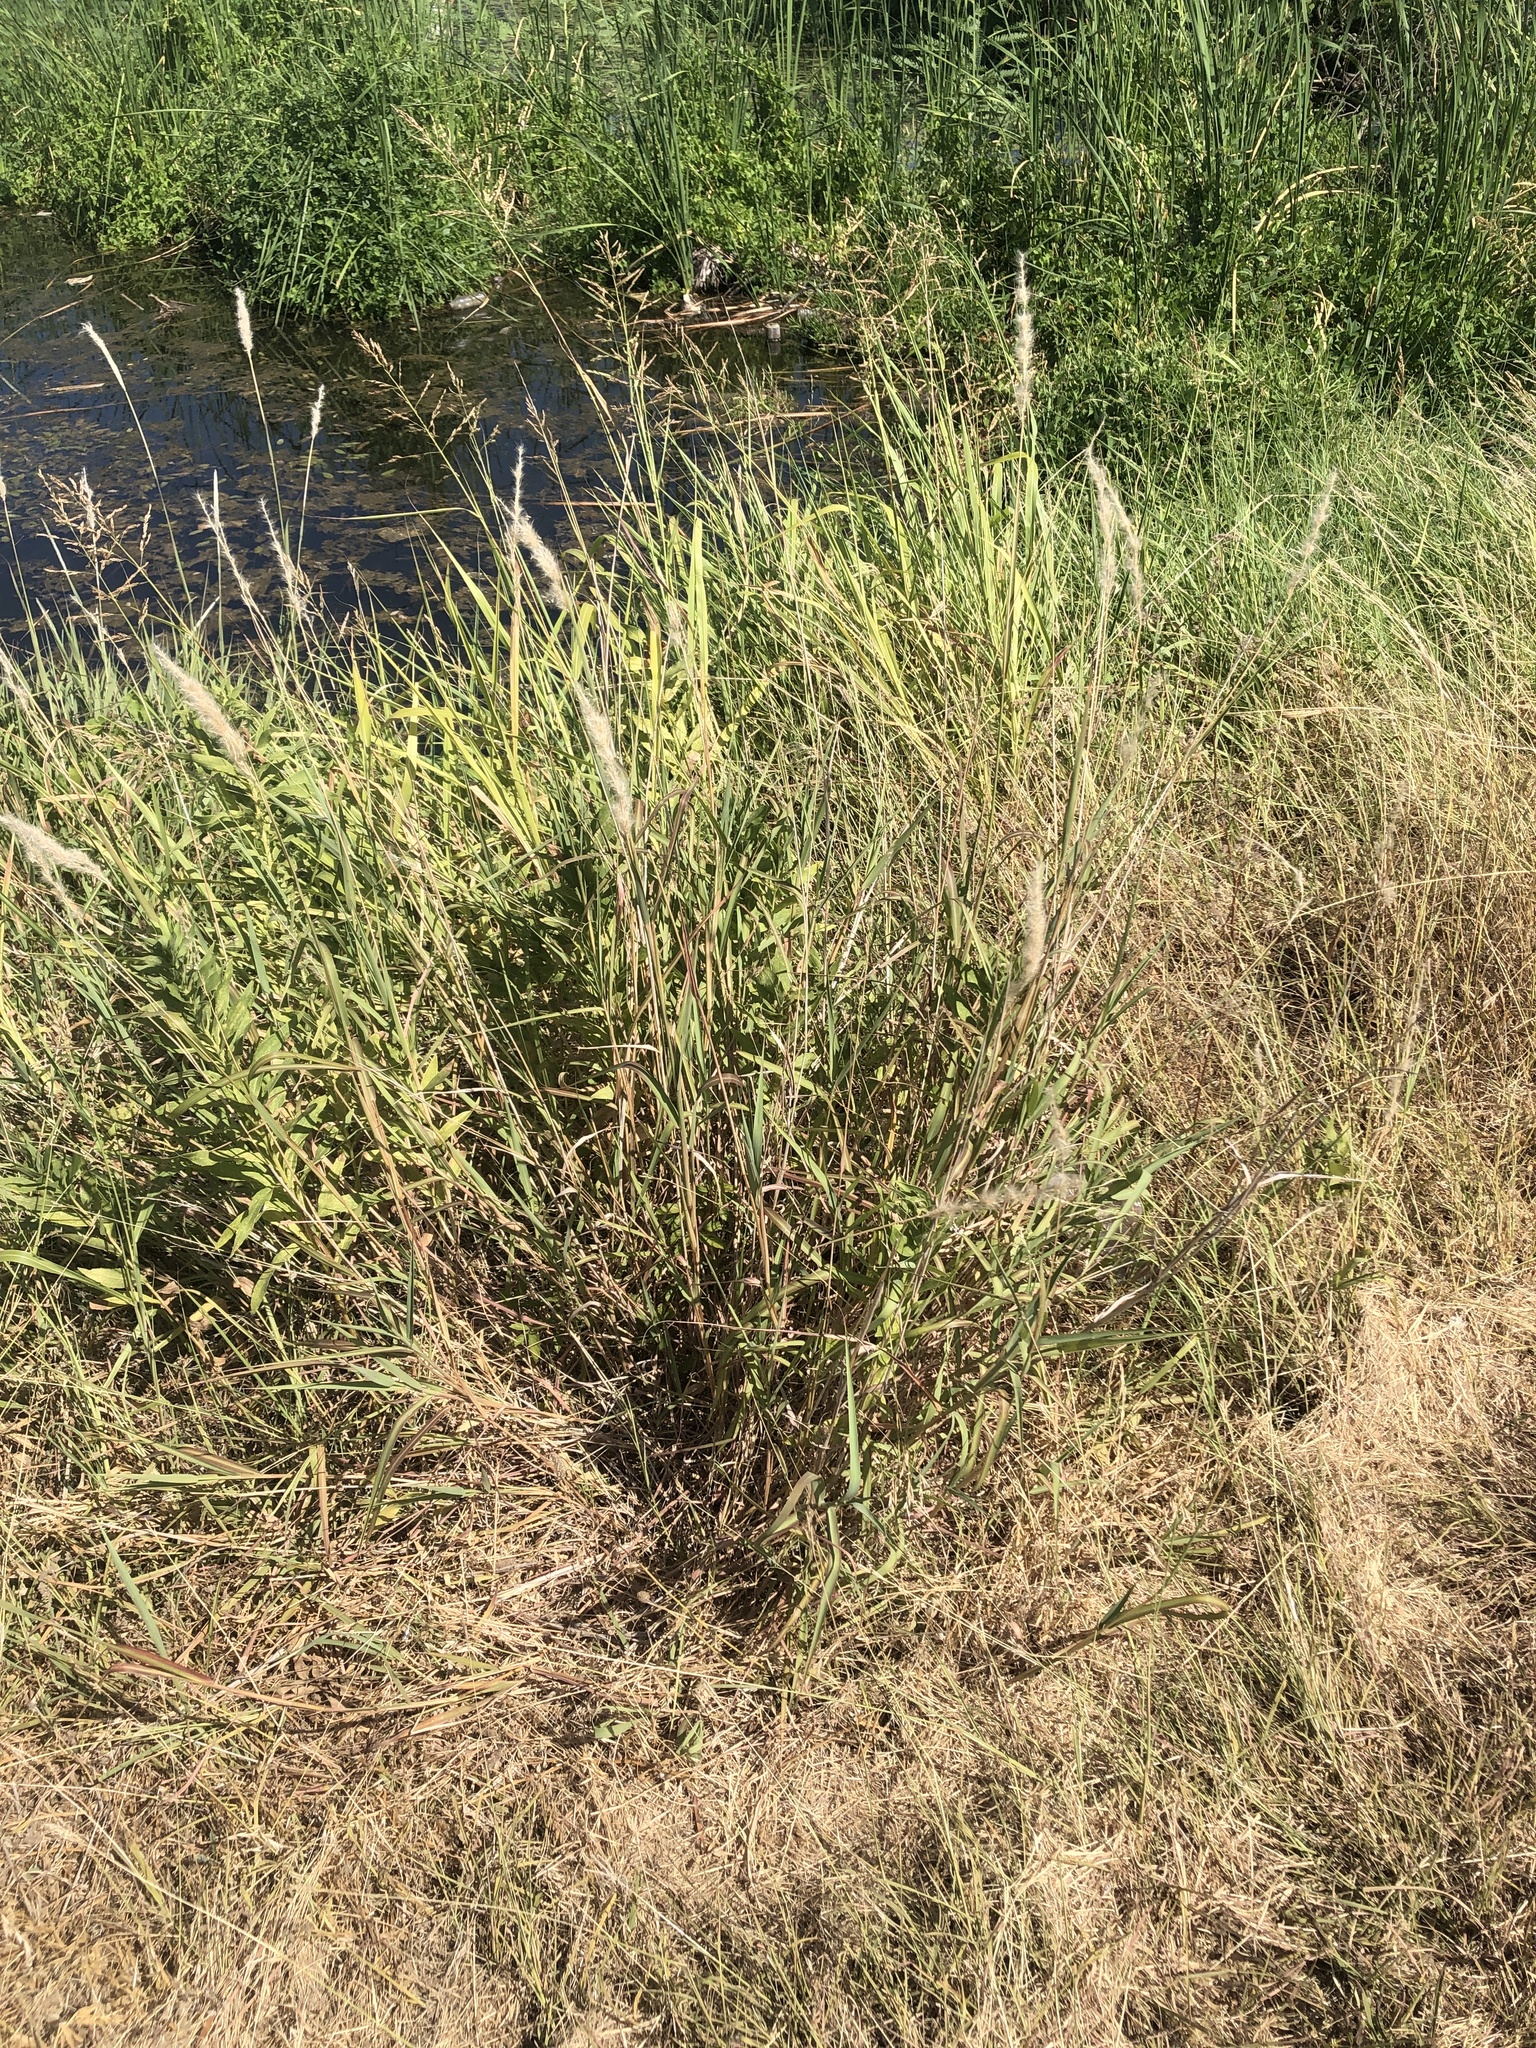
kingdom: Plantae
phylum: Tracheophyta
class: Liliopsida
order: Poales
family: Poaceae
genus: Bothriochloa
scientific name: Bothriochloa torreyana
